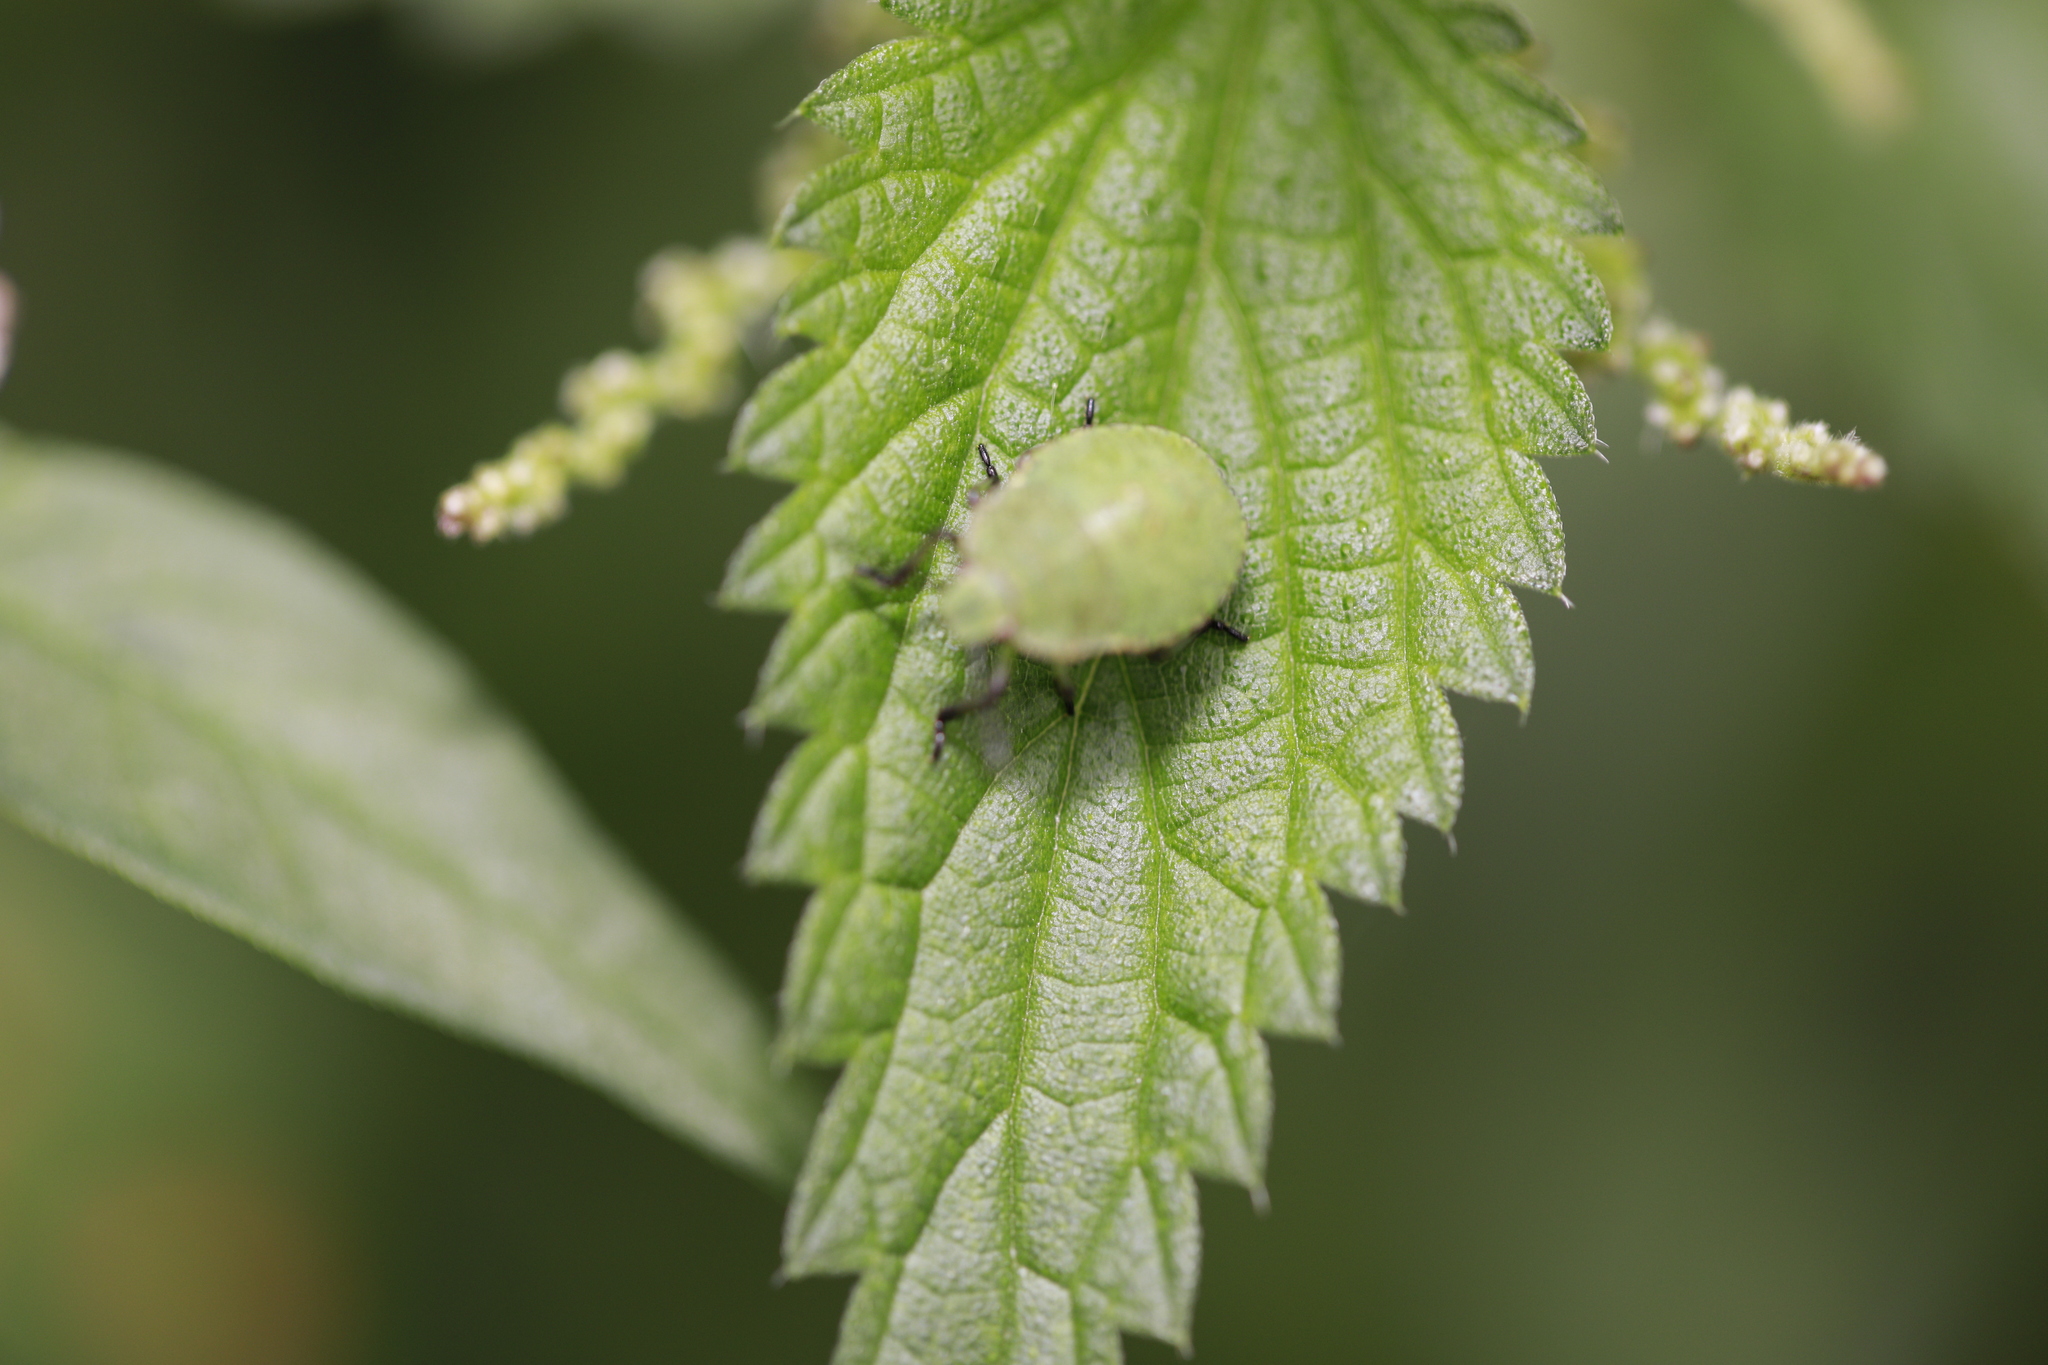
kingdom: Animalia
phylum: Arthropoda
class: Insecta
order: Hemiptera
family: Pentatomidae
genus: Palomena
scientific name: Palomena prasina
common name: Green shieldbug
